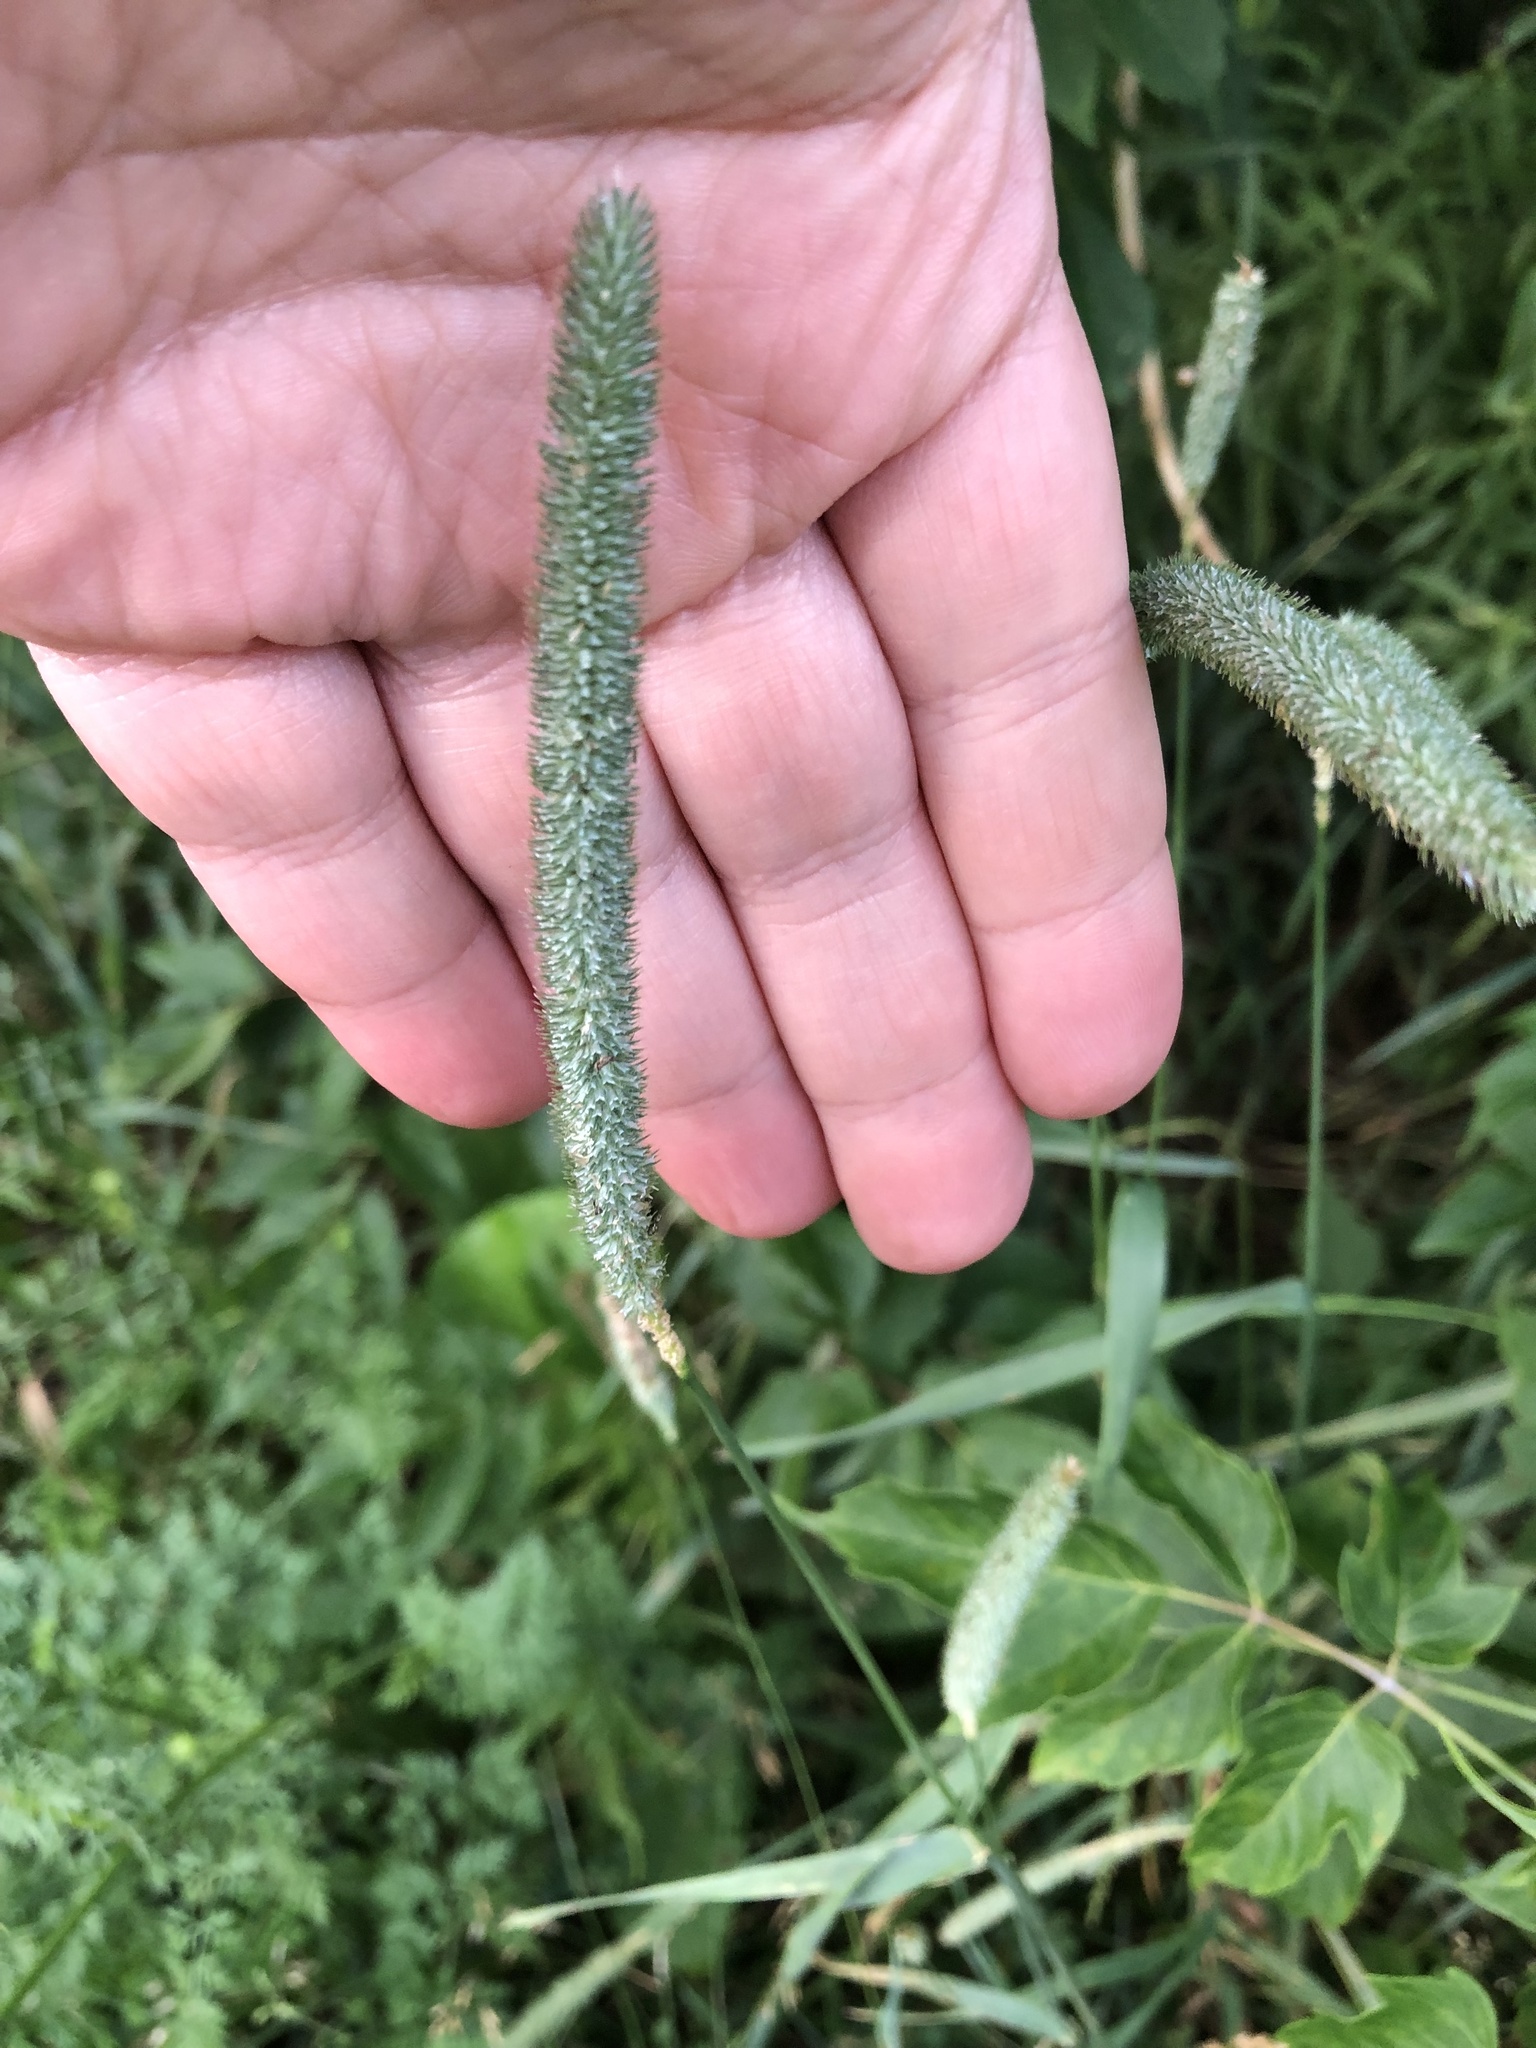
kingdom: Plantae
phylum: Tracheophyta
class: Liliopsida
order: Poales
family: Poaceae
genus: Phleum
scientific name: Phleum pratense
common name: Timothy grass
